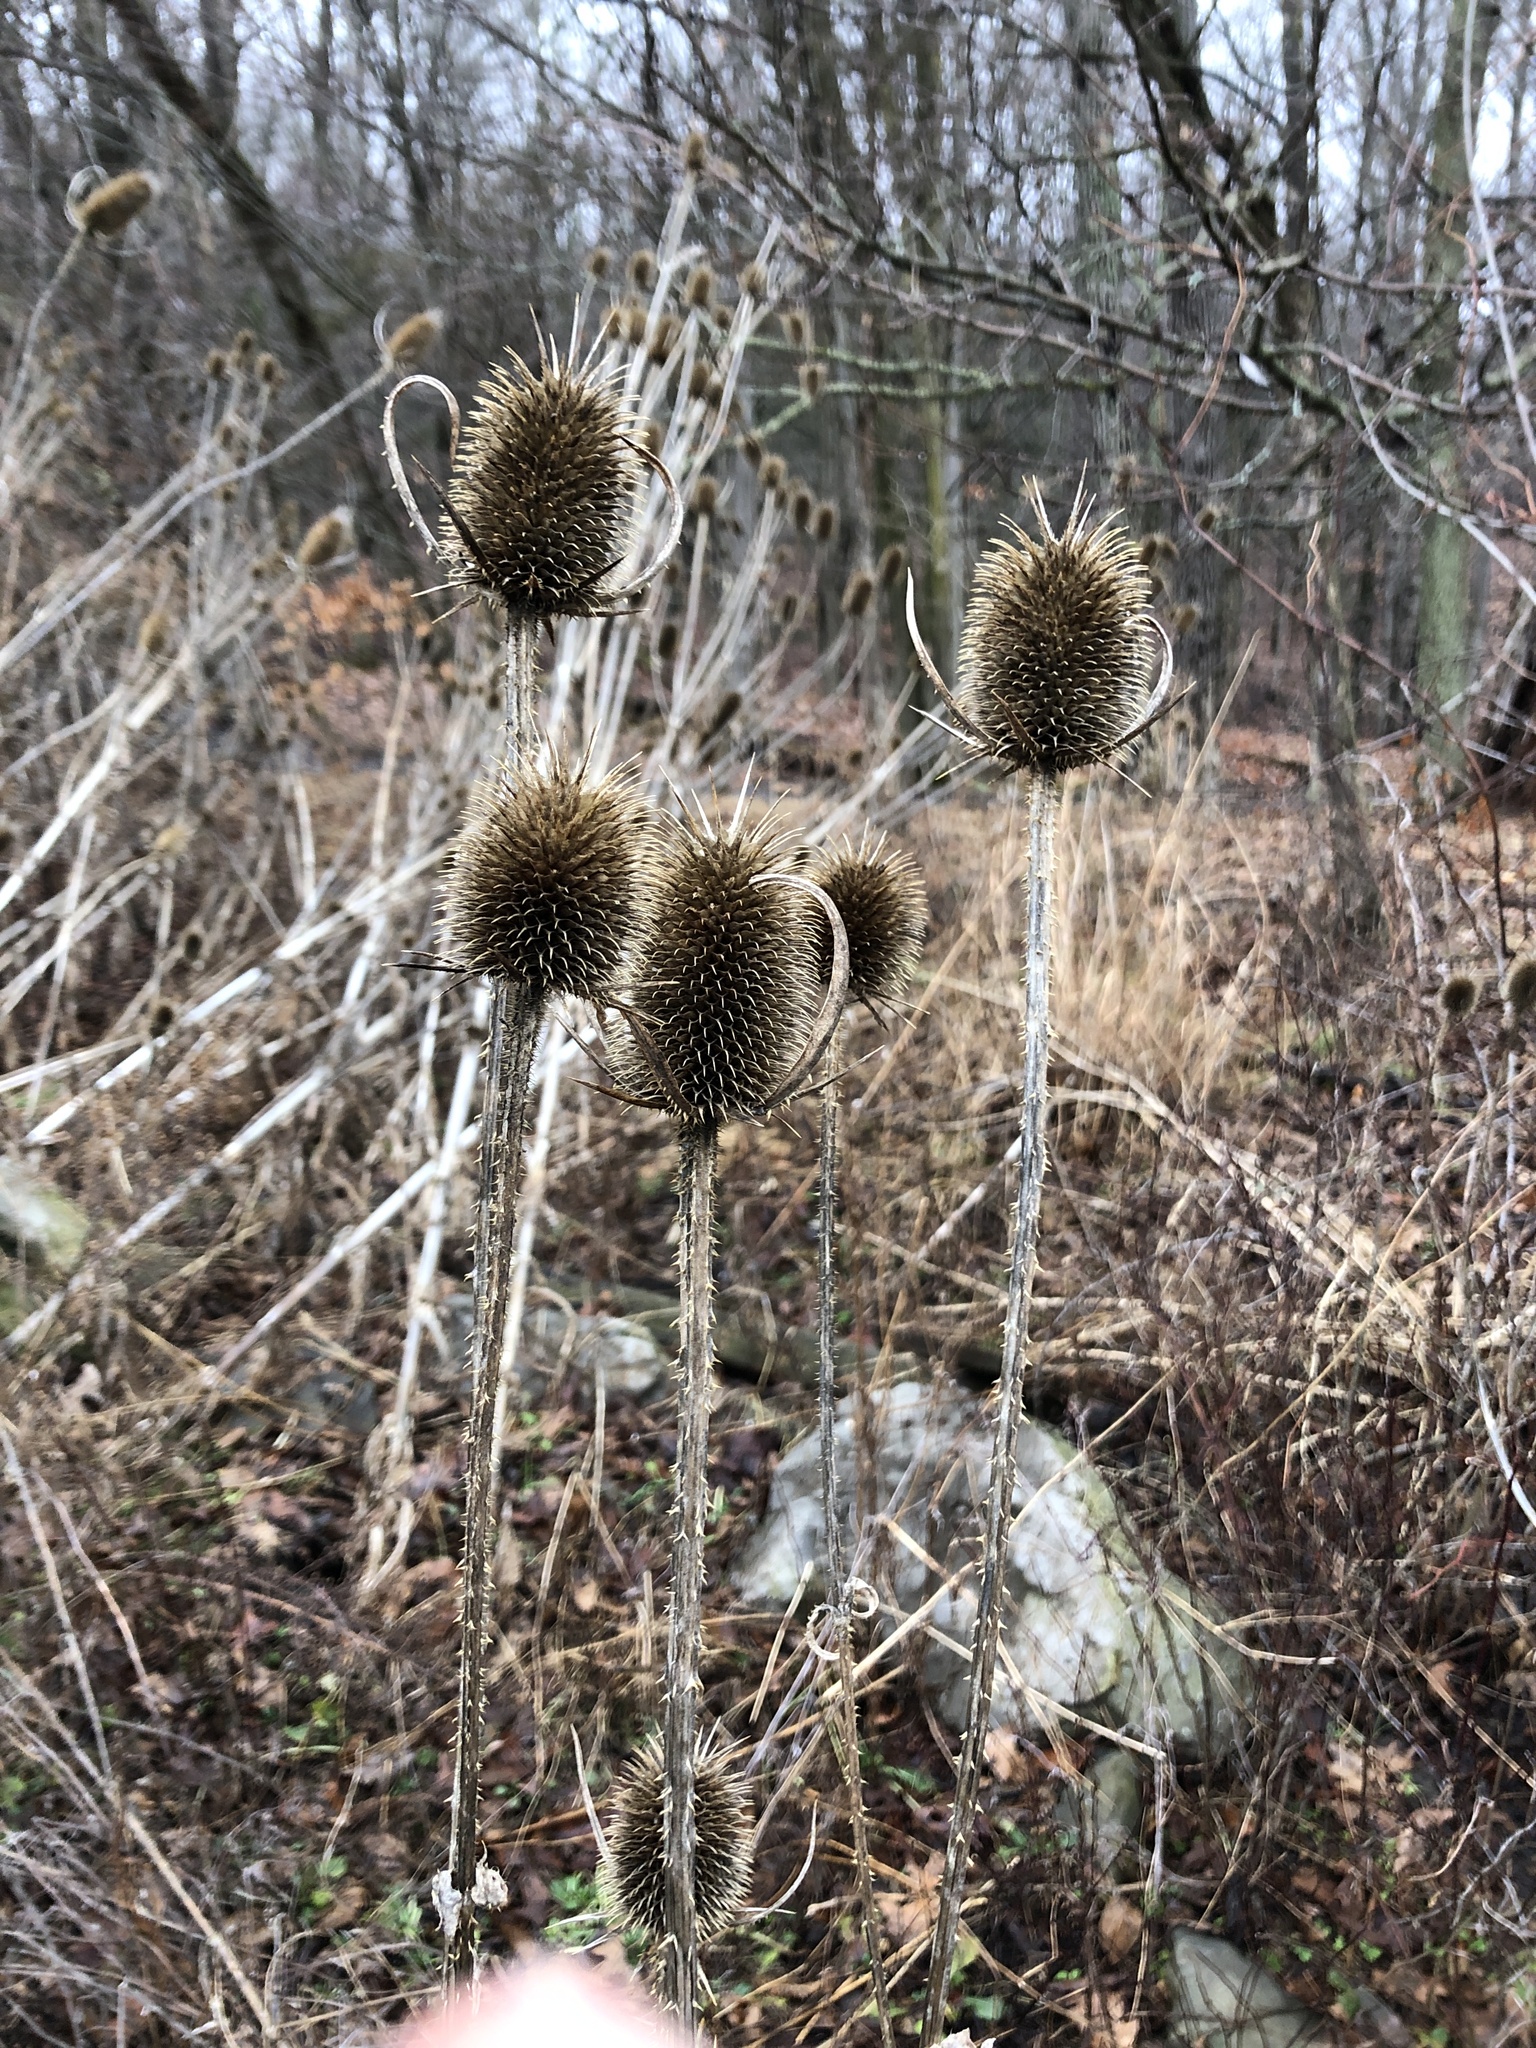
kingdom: Plantae
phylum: Tracheophyta
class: Magnoliopsida
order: Dipsacales
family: Caprifoliaceae
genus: Dipsacus
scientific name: Dipsacus laciniatus
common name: Cut-leaved teasel
